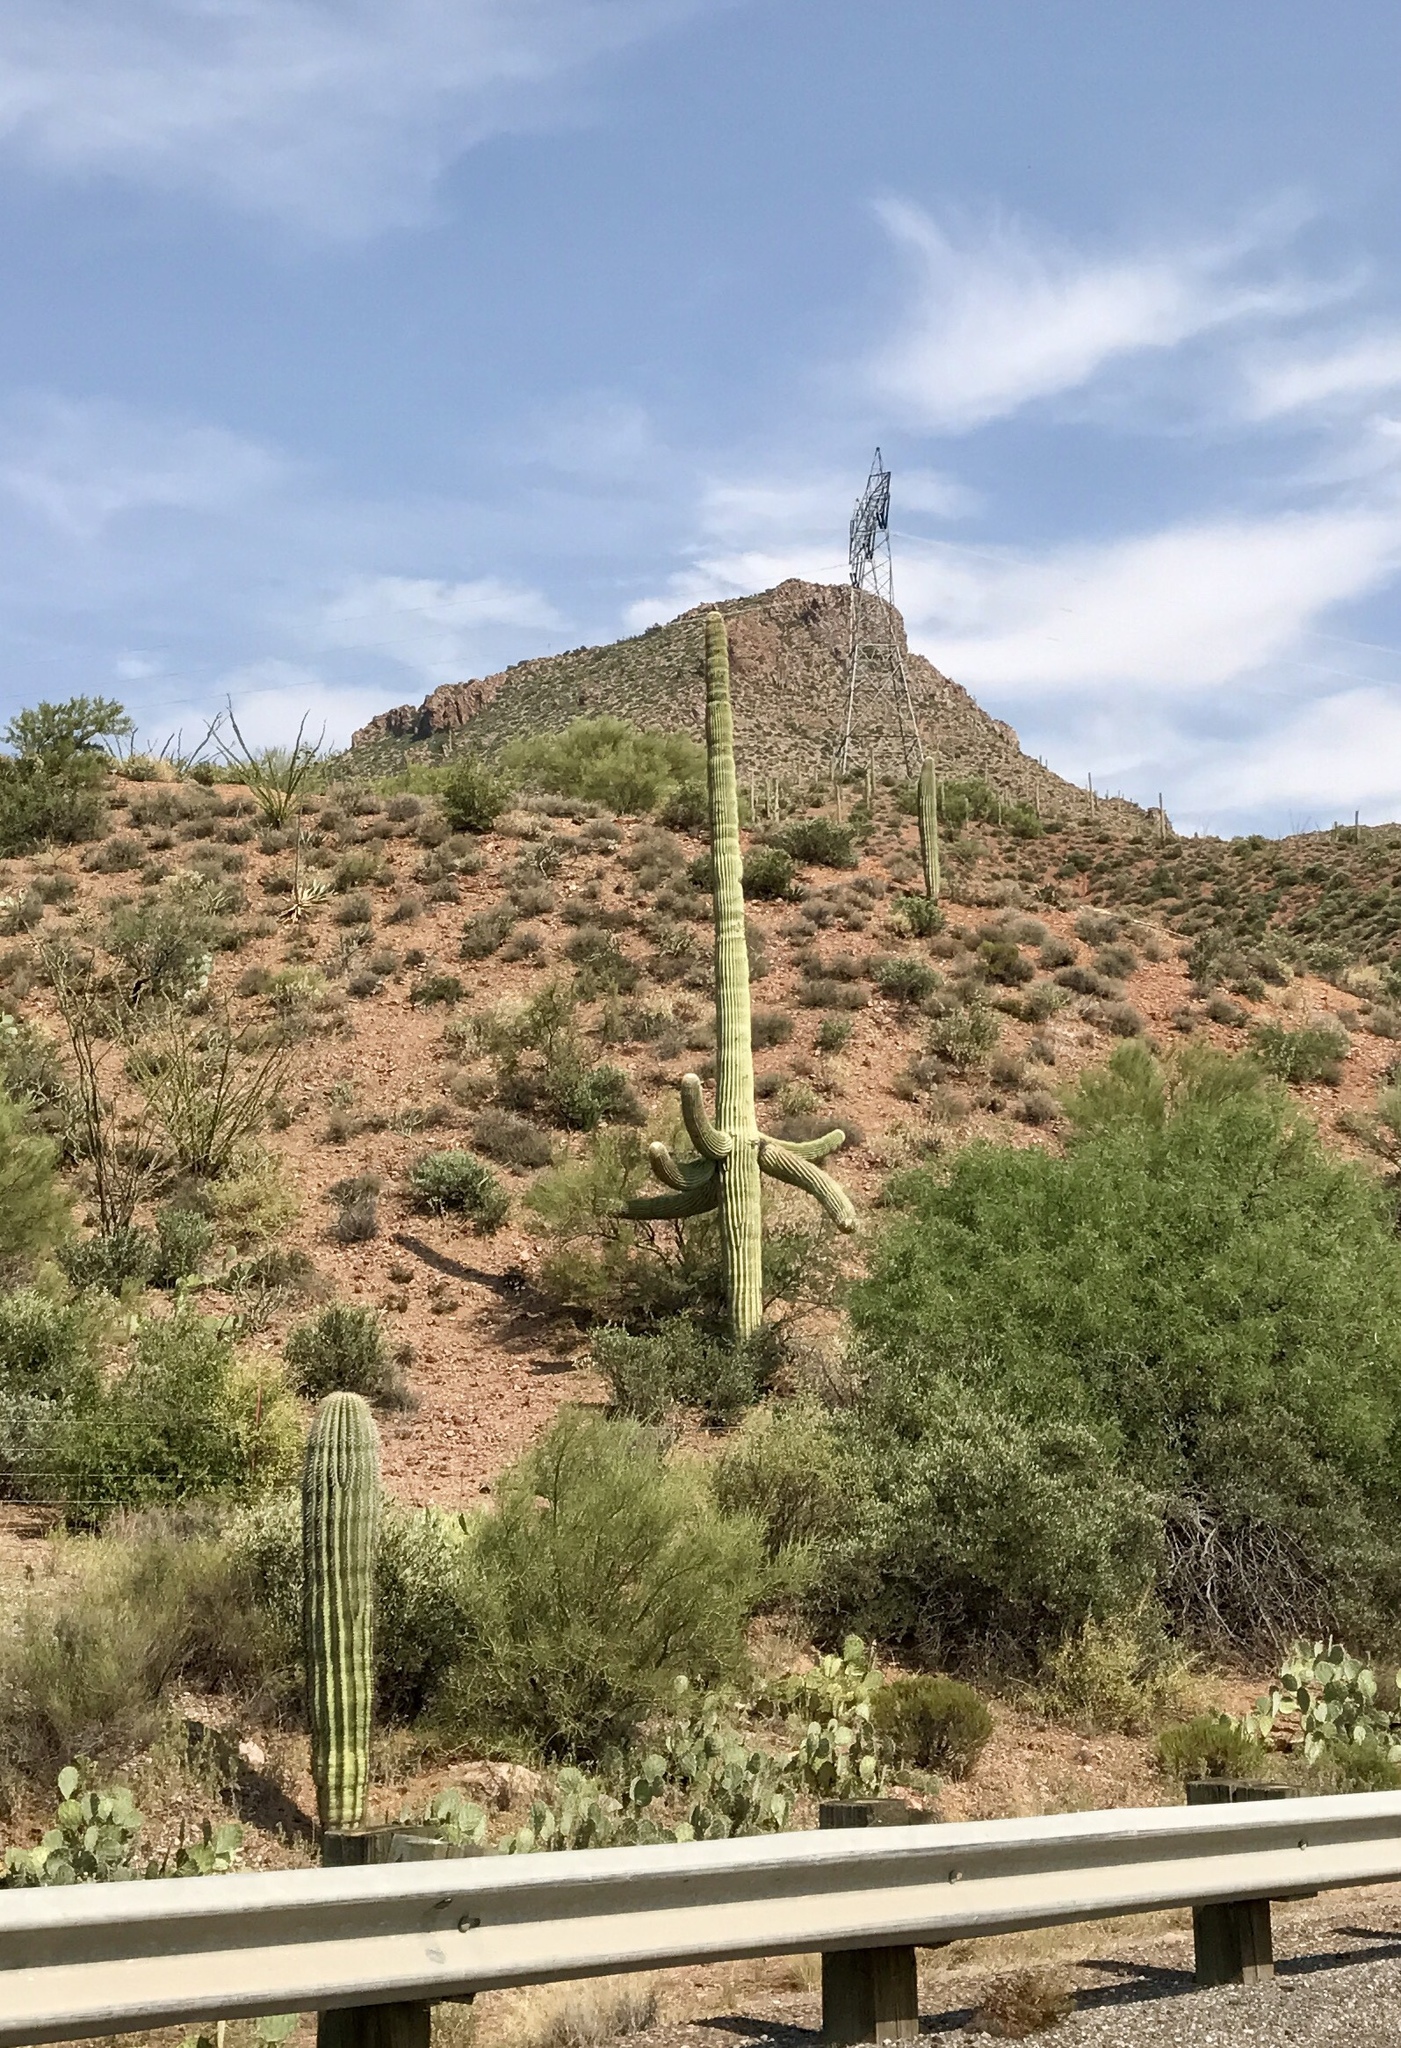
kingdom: Plantae
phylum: Tracheophyta
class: Magnoliopsida
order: Caryophyllales
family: Cactaceae
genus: Carnegiea
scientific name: Carnegiea gigantea
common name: Saguaro
